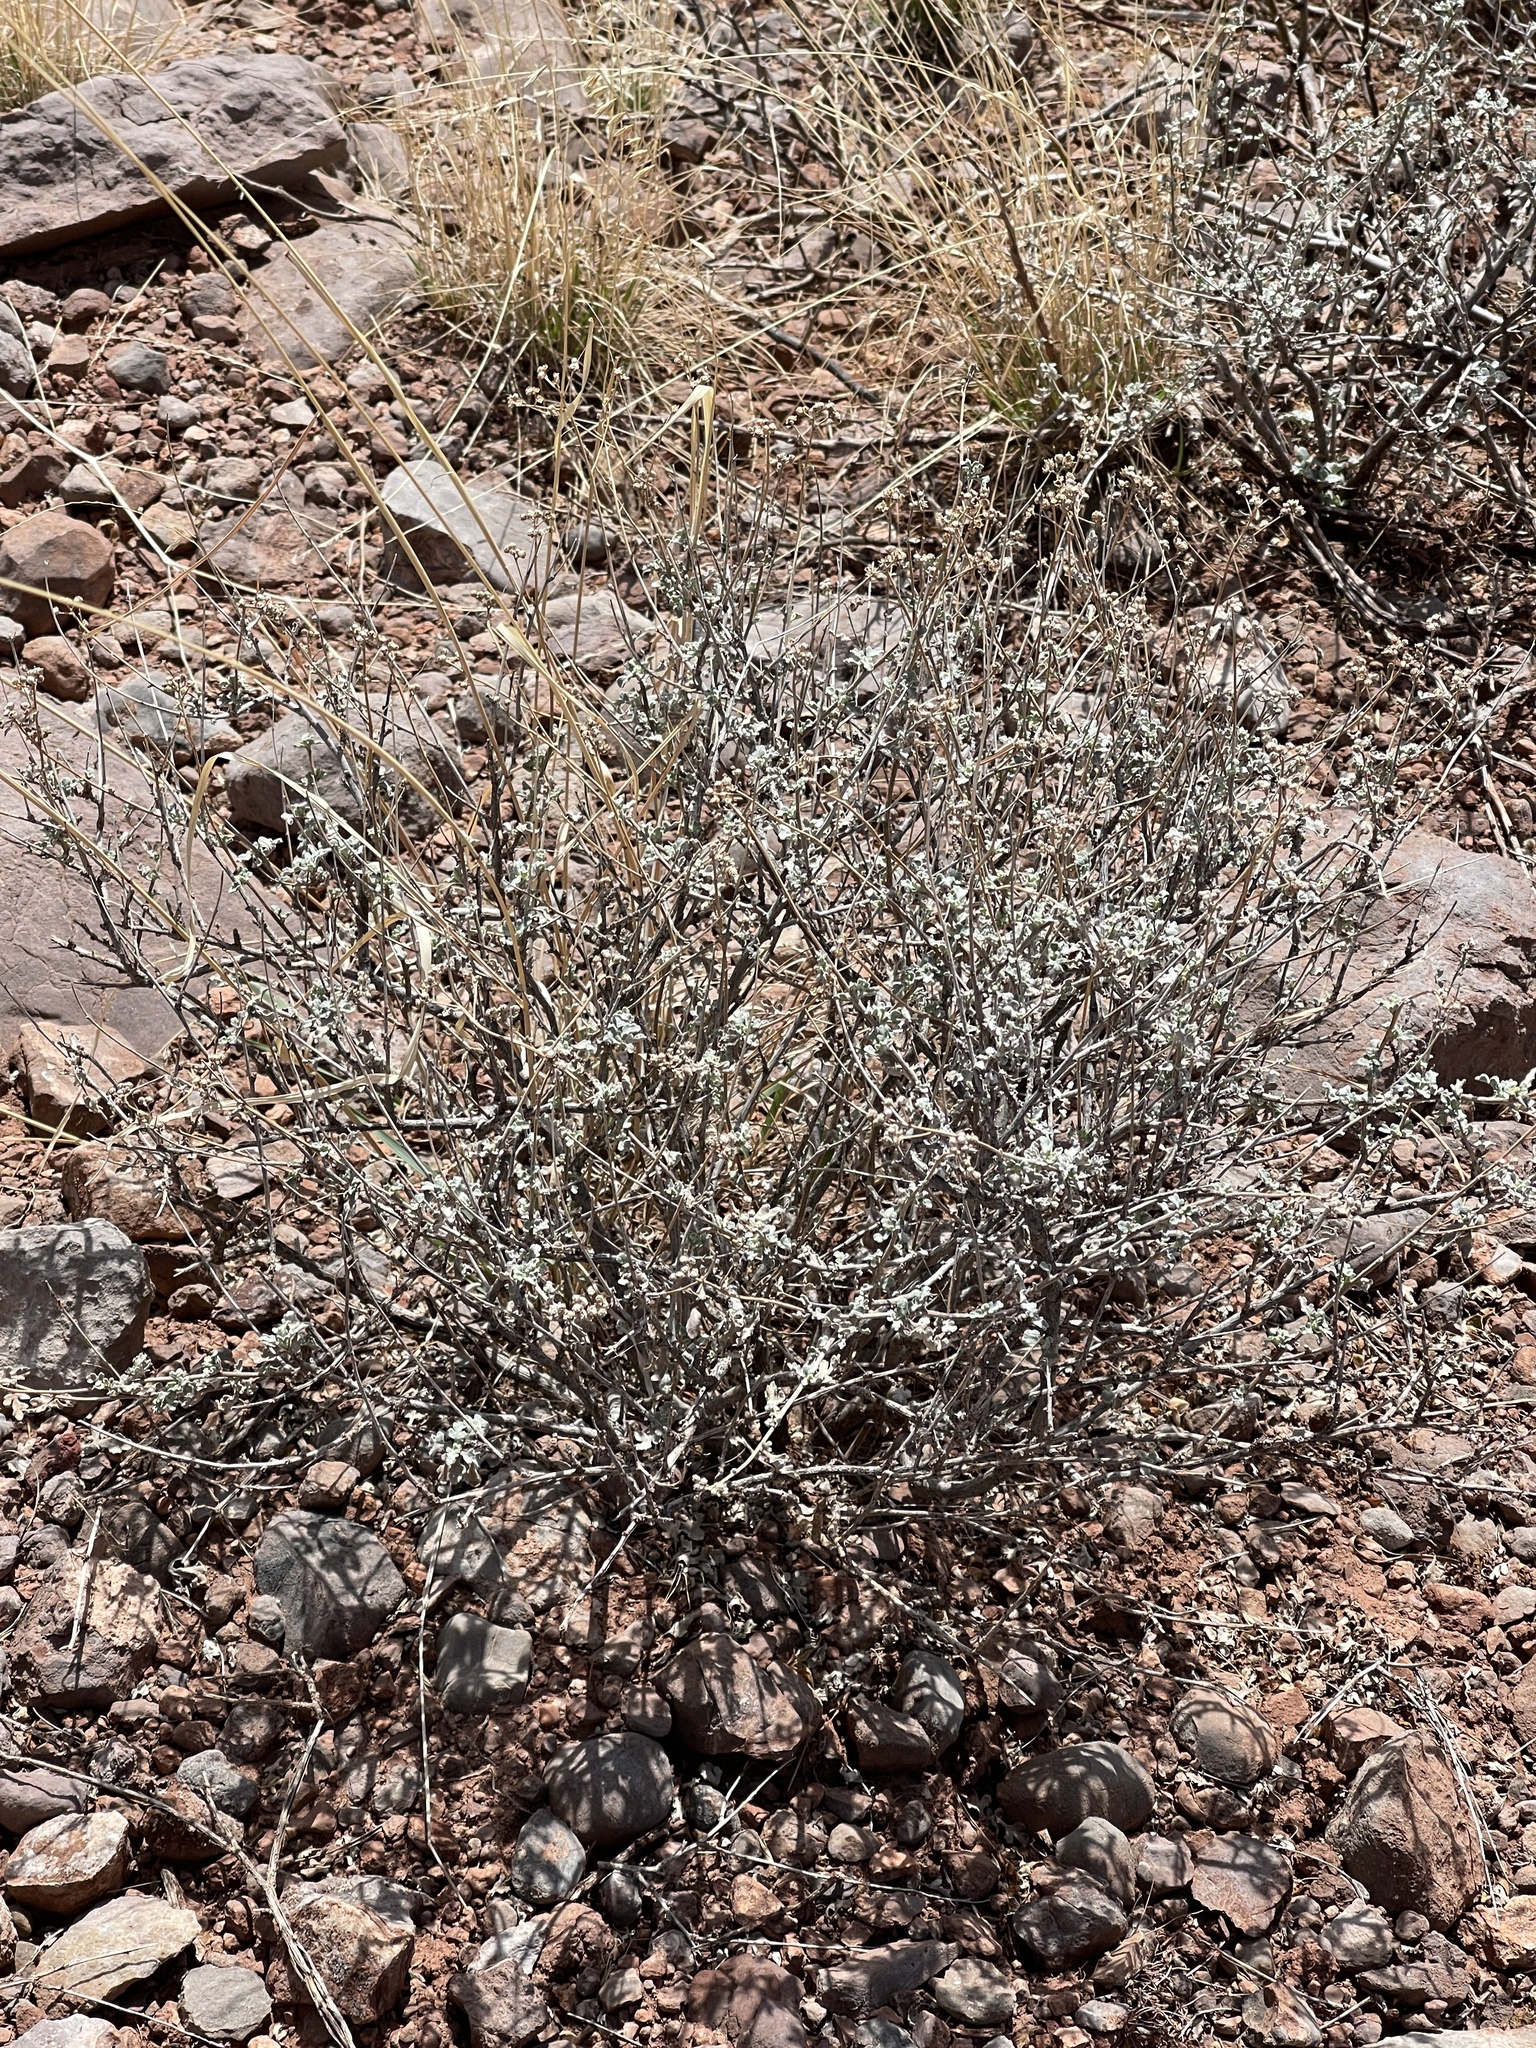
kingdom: Plantae
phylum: Tracheophyta
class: Magnoliopsida
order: Asterales
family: Asteraceae
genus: Parthenium
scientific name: Parthenium incanum
